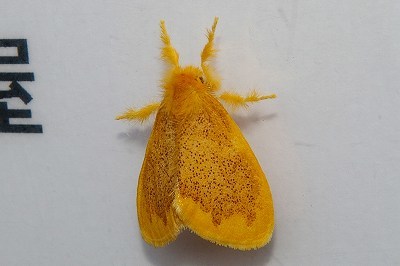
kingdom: Animalia
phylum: Arthropoda
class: Insecta
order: Lepidoptera
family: Erebidae
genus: Somena
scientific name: Somena
